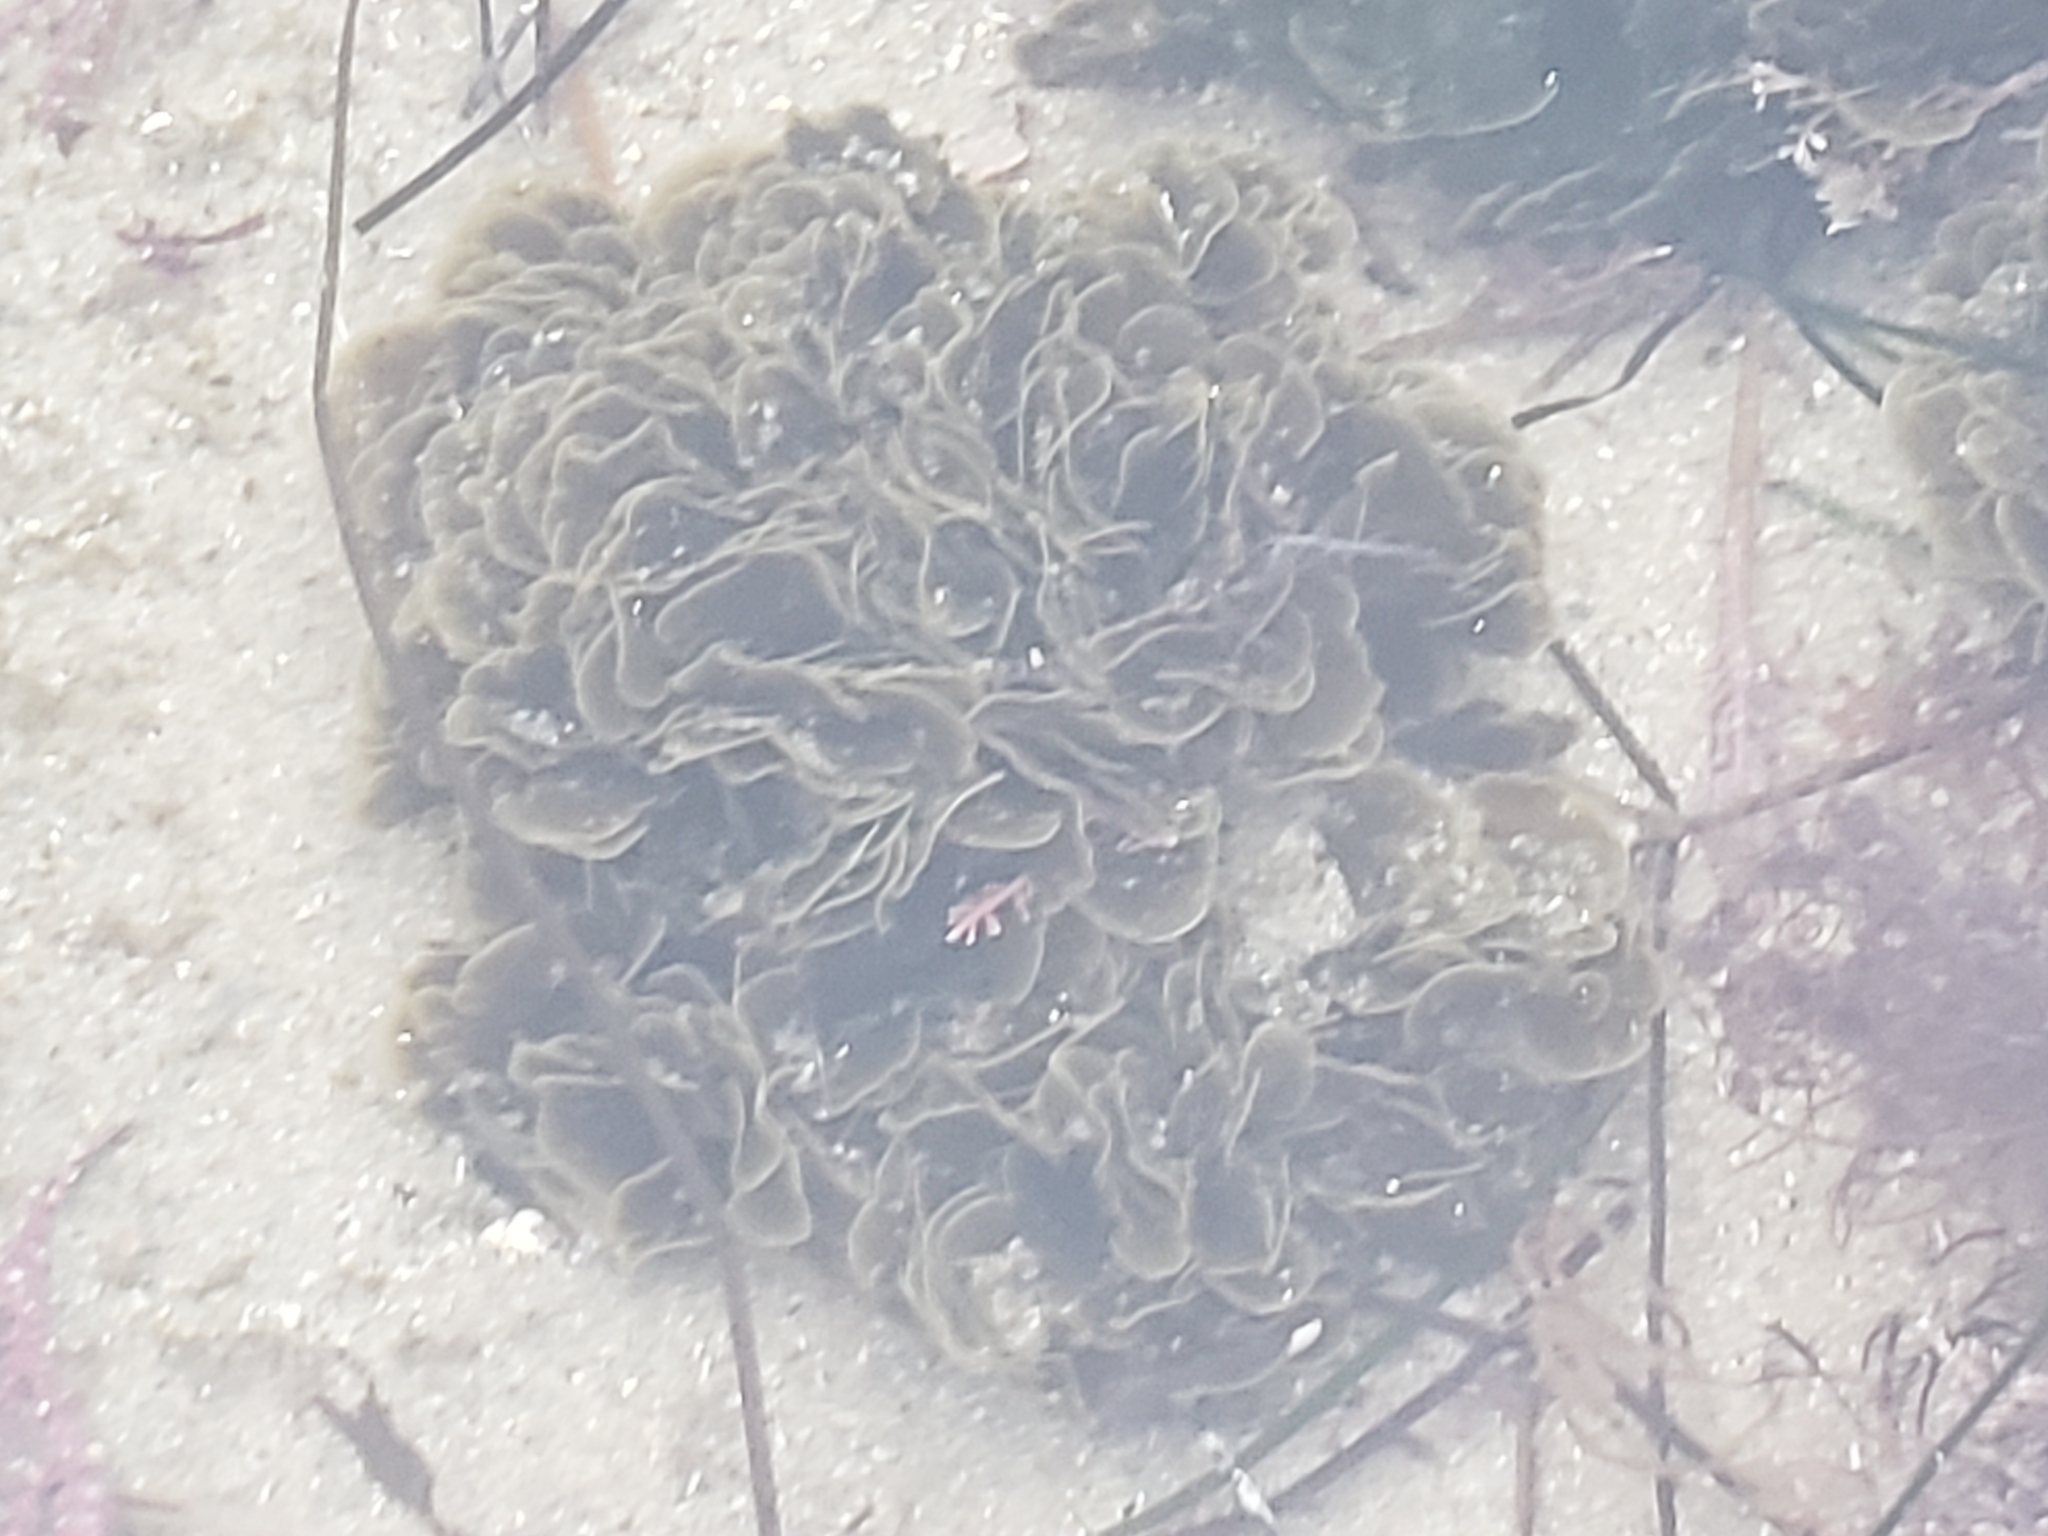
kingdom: Chromista
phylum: Ochrophyta
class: Phaeophyceae
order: Dictyotales
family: Dictyotaceae
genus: Zonaria
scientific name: Zonaria farlowii
